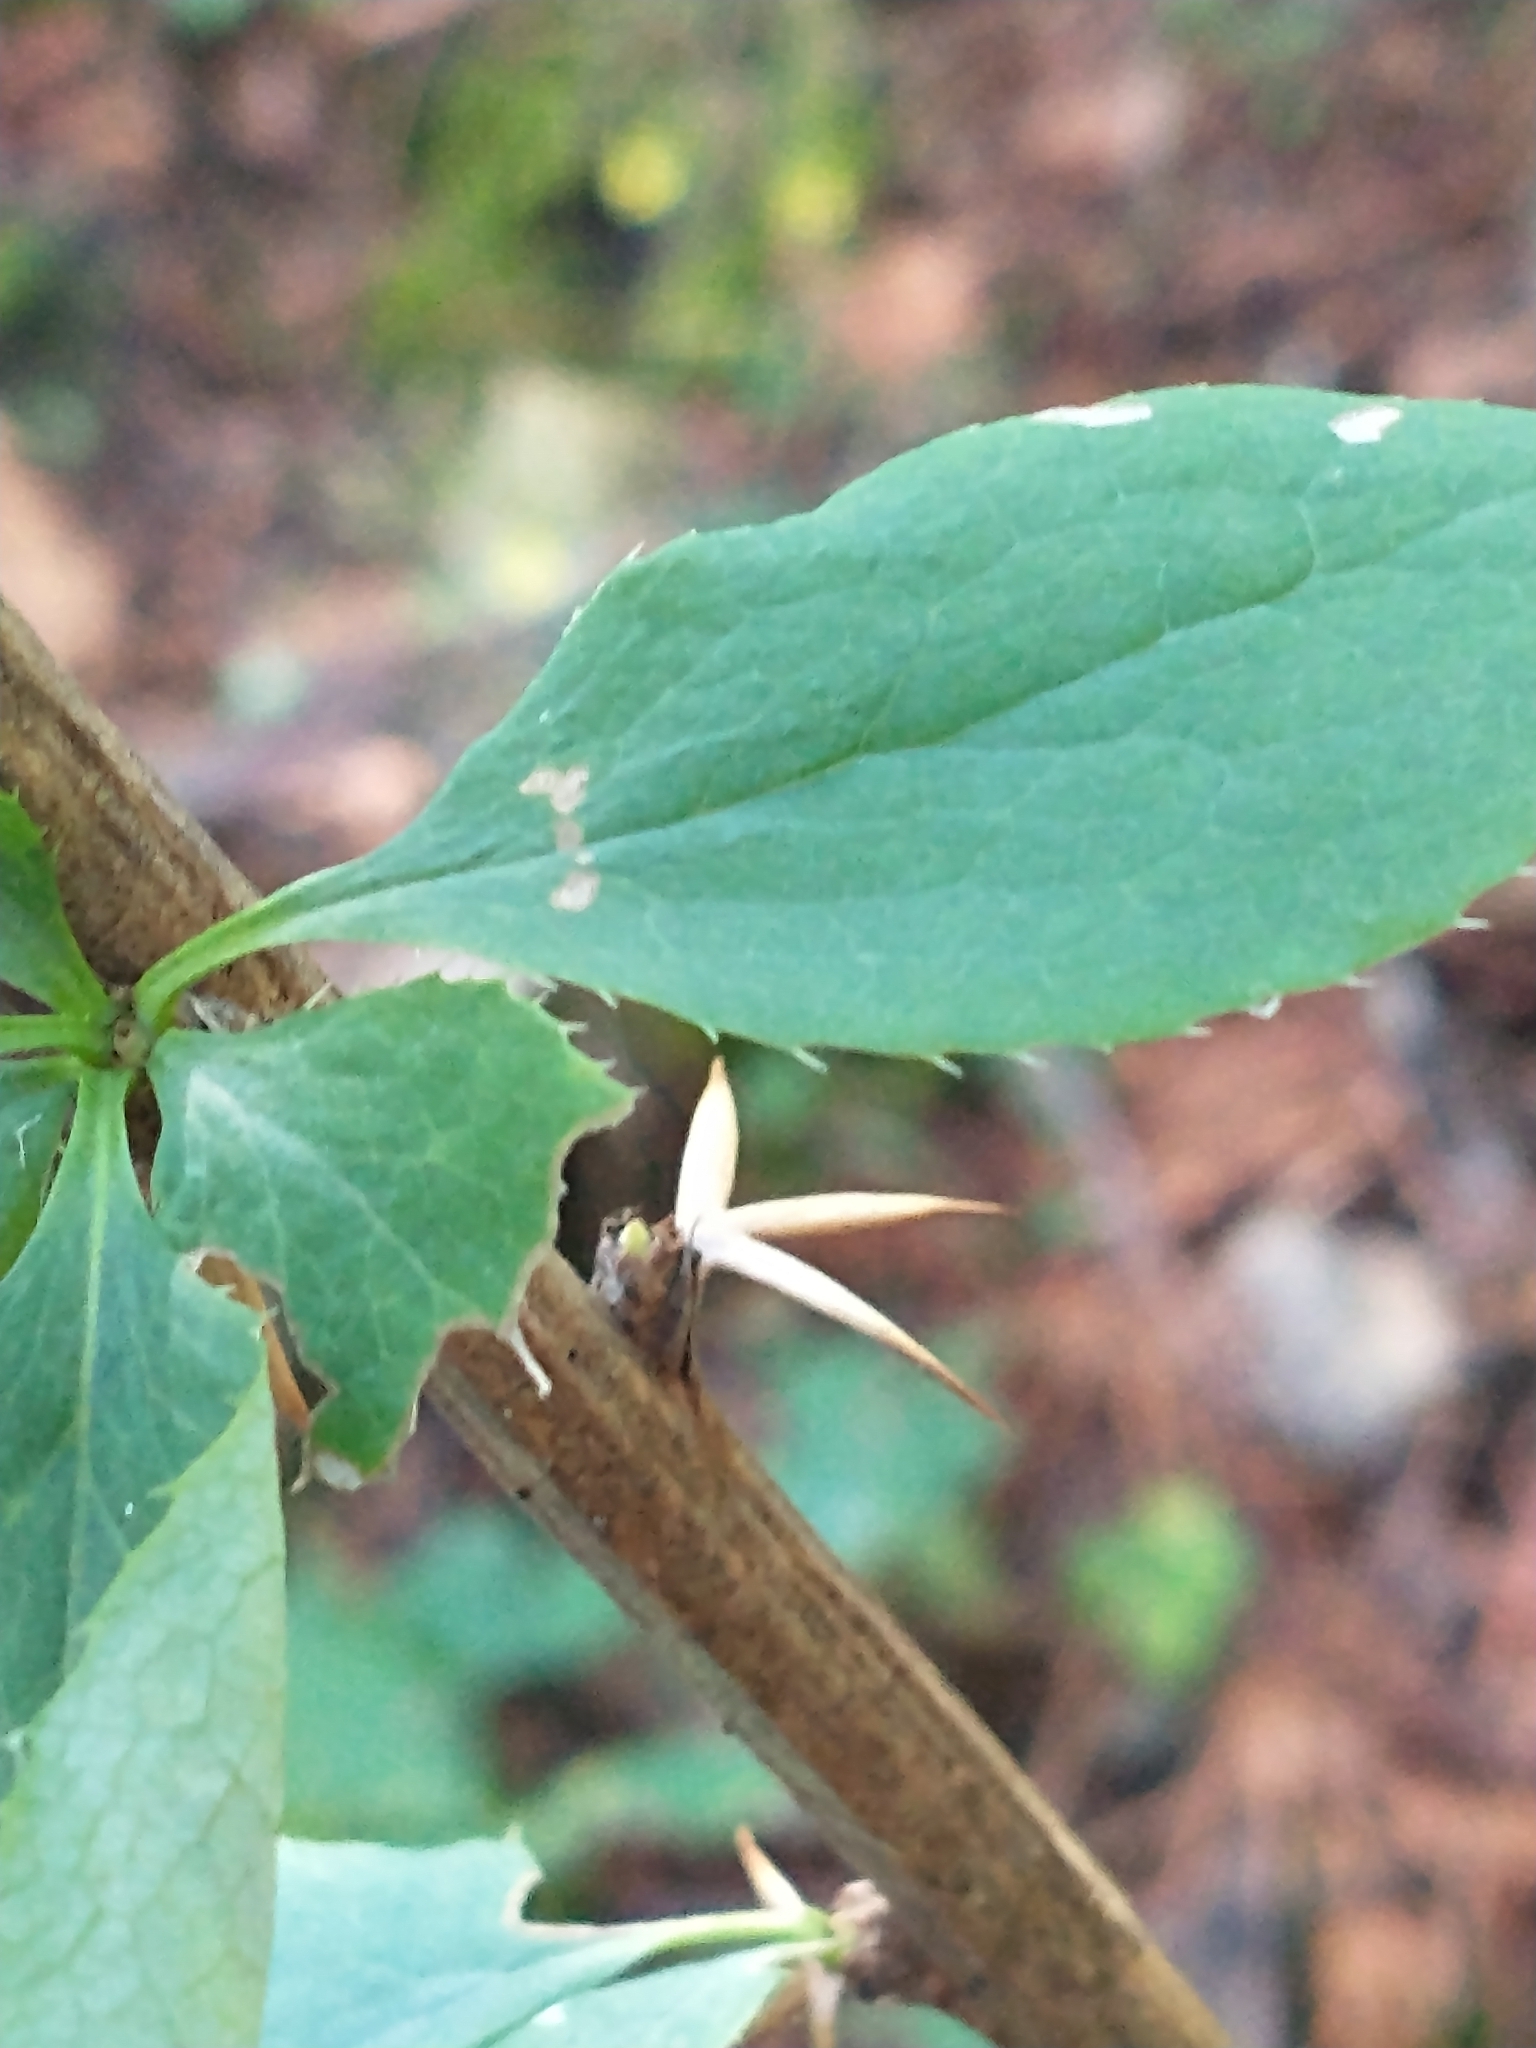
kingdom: Plantae
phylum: Tracheophyta
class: Magnoliopsida
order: Ranunculales
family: Berberidaceae
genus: Berberis
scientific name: Berberis vulgaris
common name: Barberry
